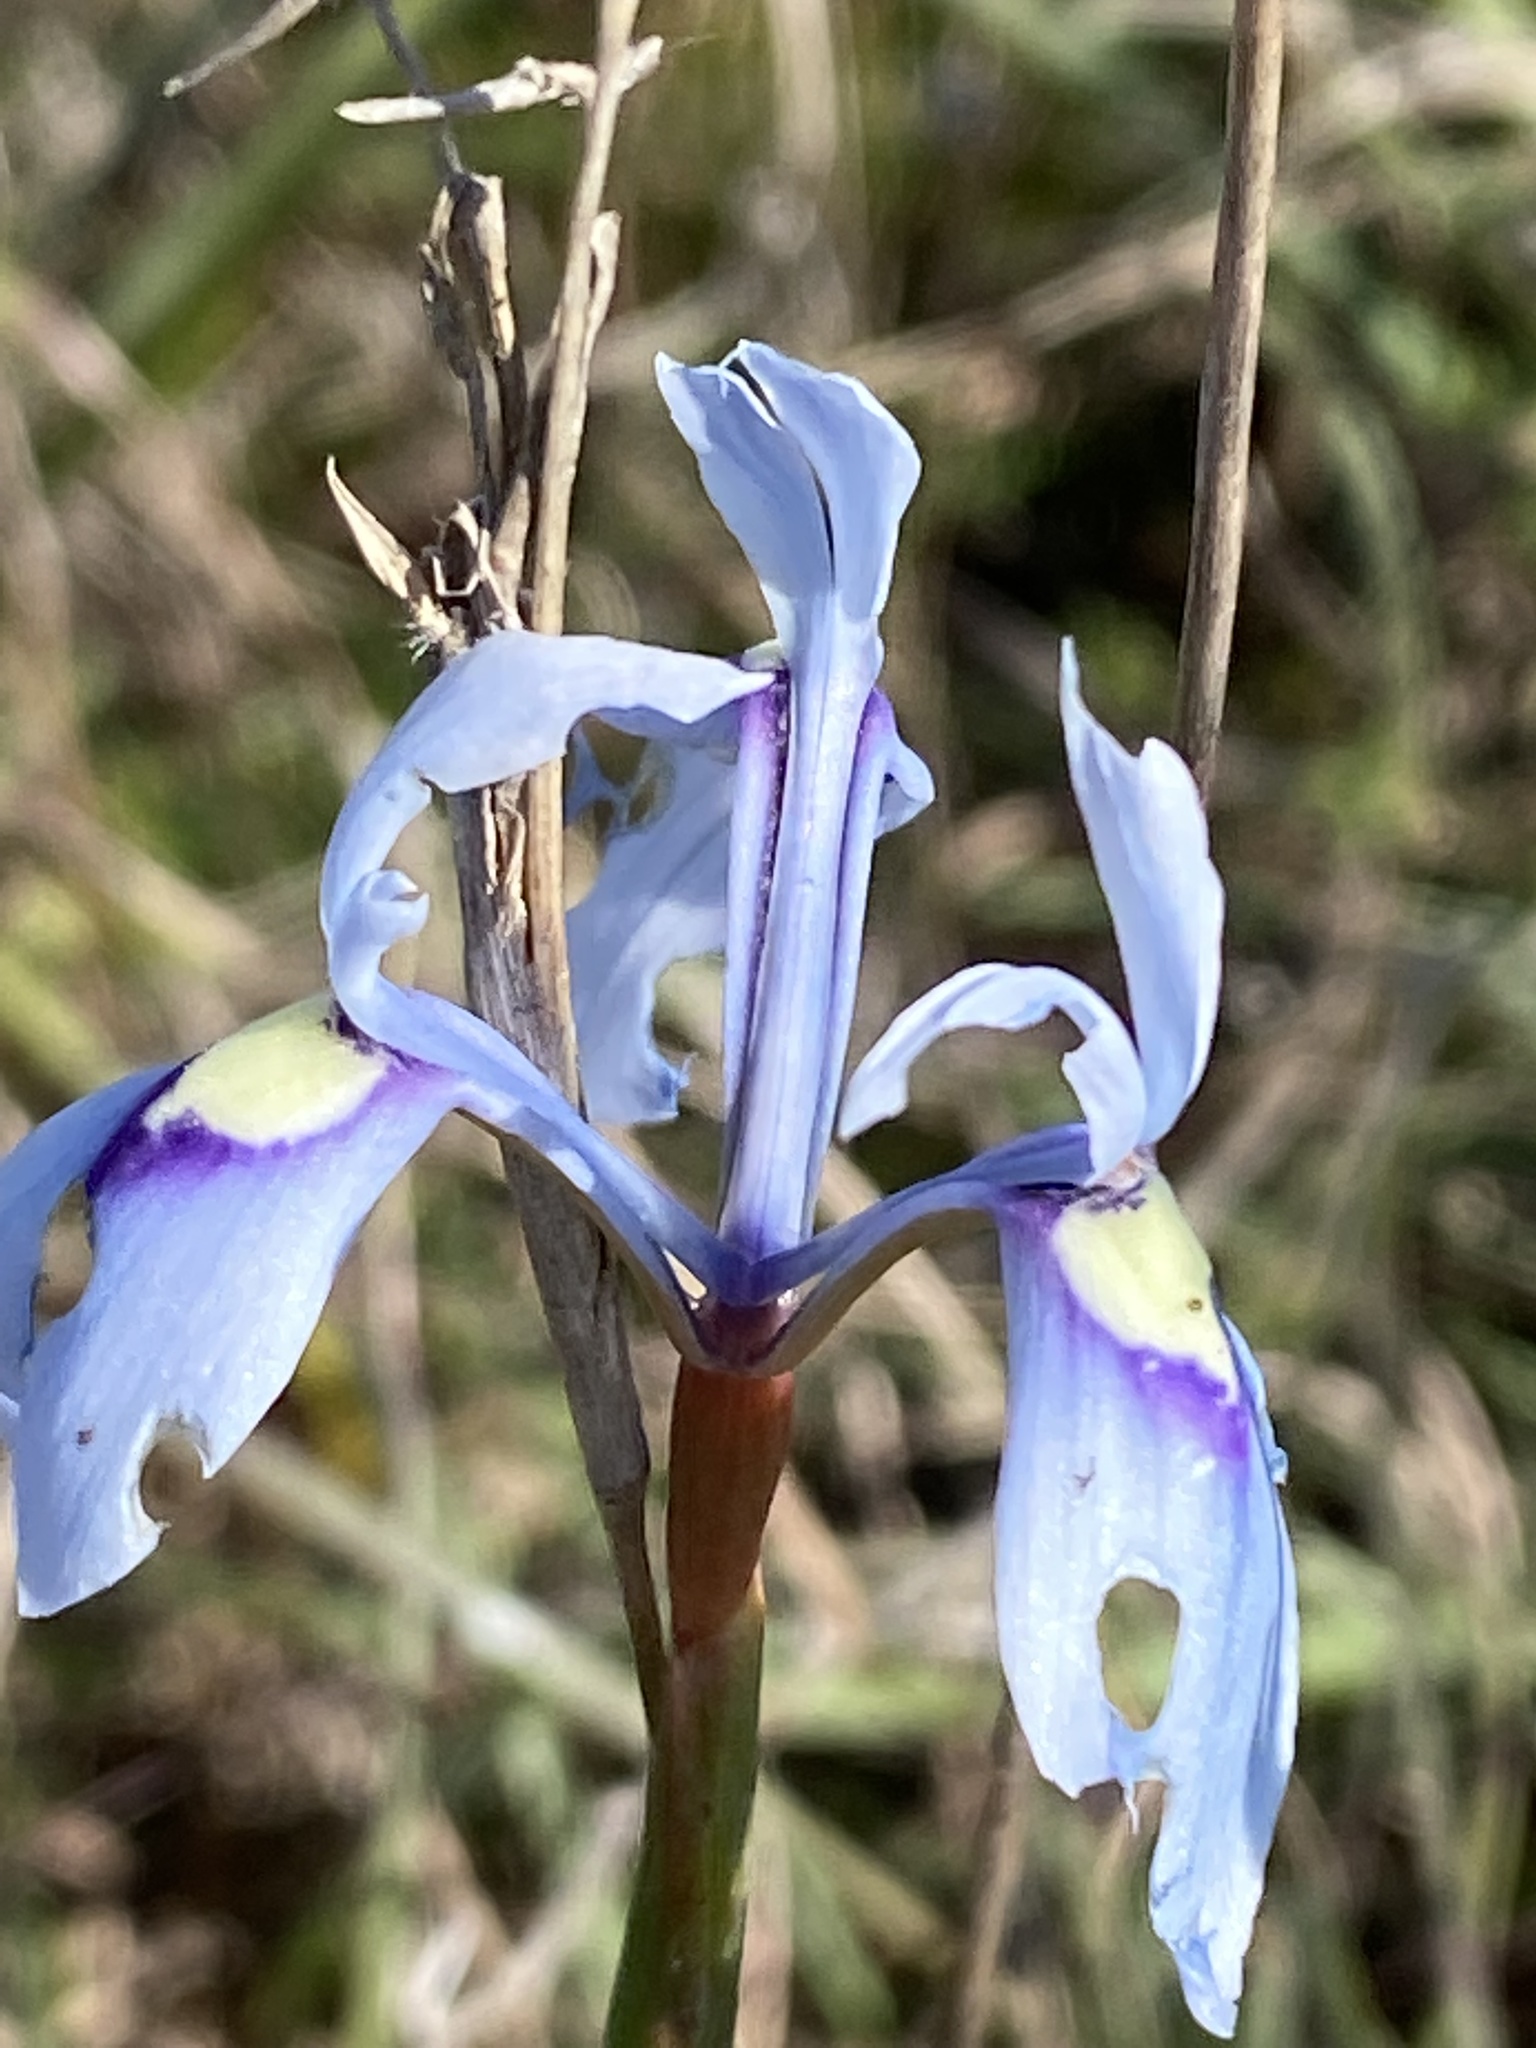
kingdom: Plantae
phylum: Tracheophyta
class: Liliopsida
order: Asparagales
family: Iridaceae
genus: Moraea
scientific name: Moraea tripetala
